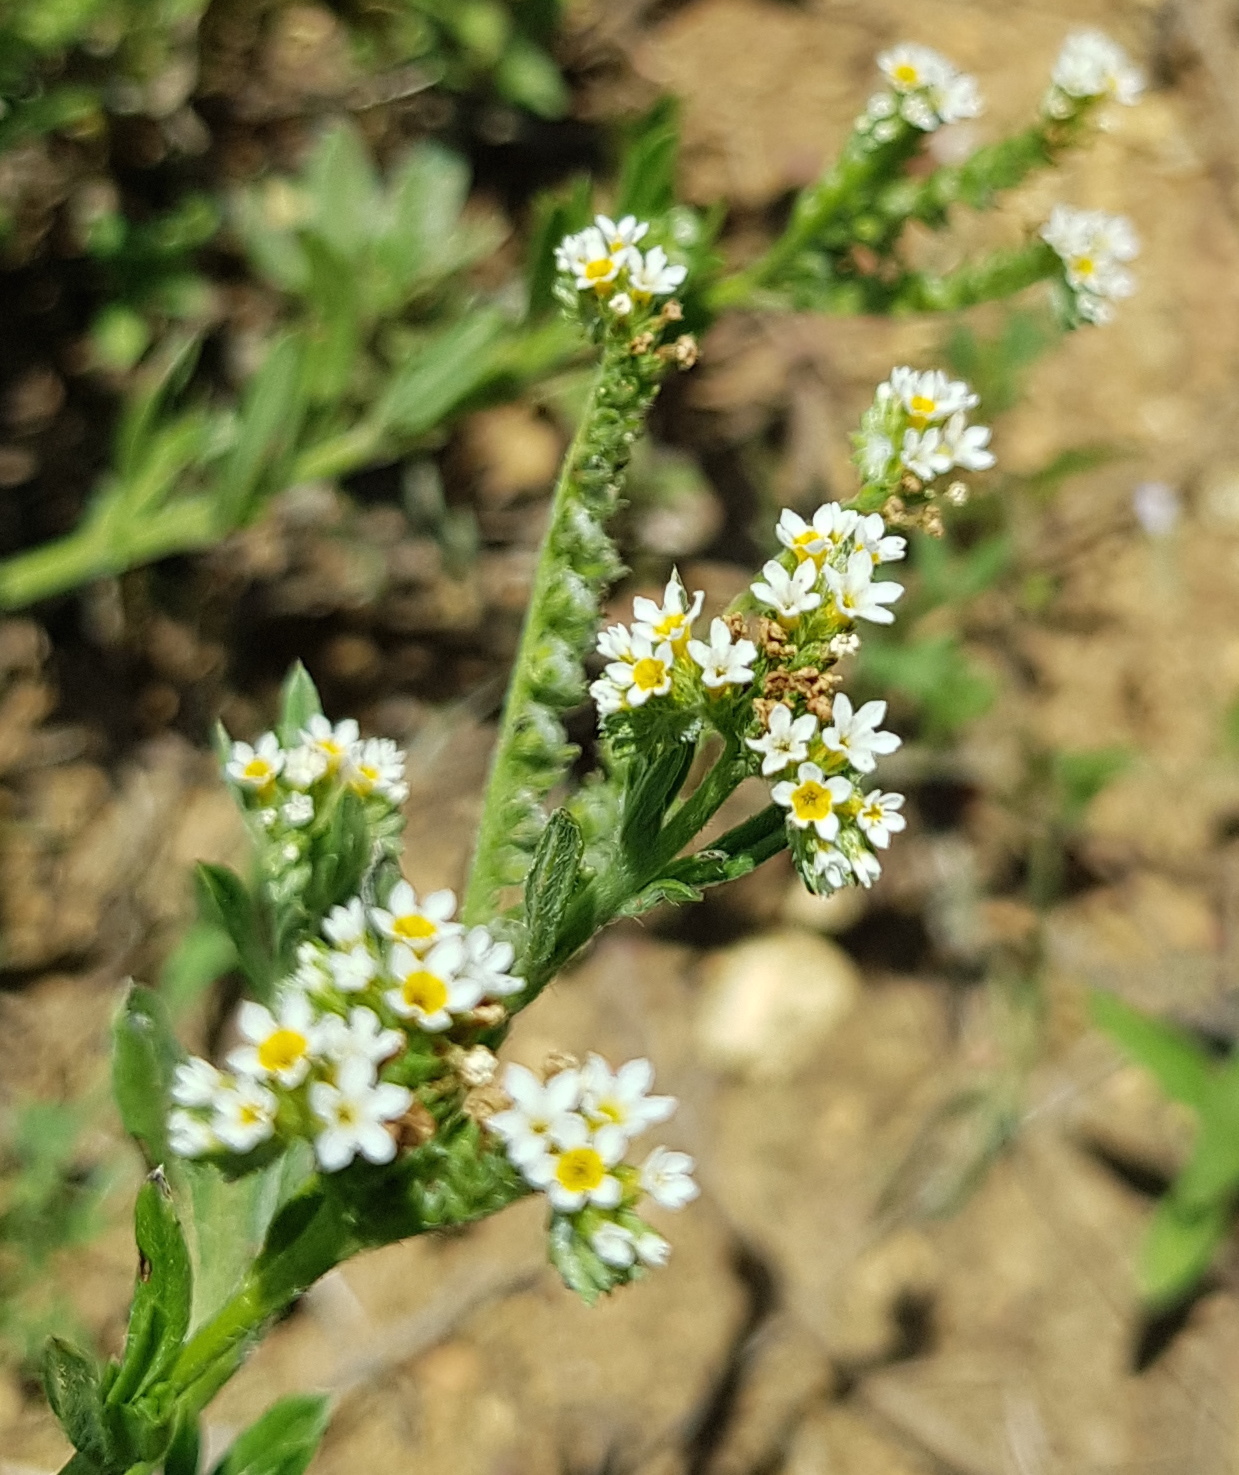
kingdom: Plantae
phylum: Tracheophyta
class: Magnoliopsida
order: Boraginales
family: Heliotropiaceae
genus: Euploca
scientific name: Euploca procumbens
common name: Fourspike heliotrope
